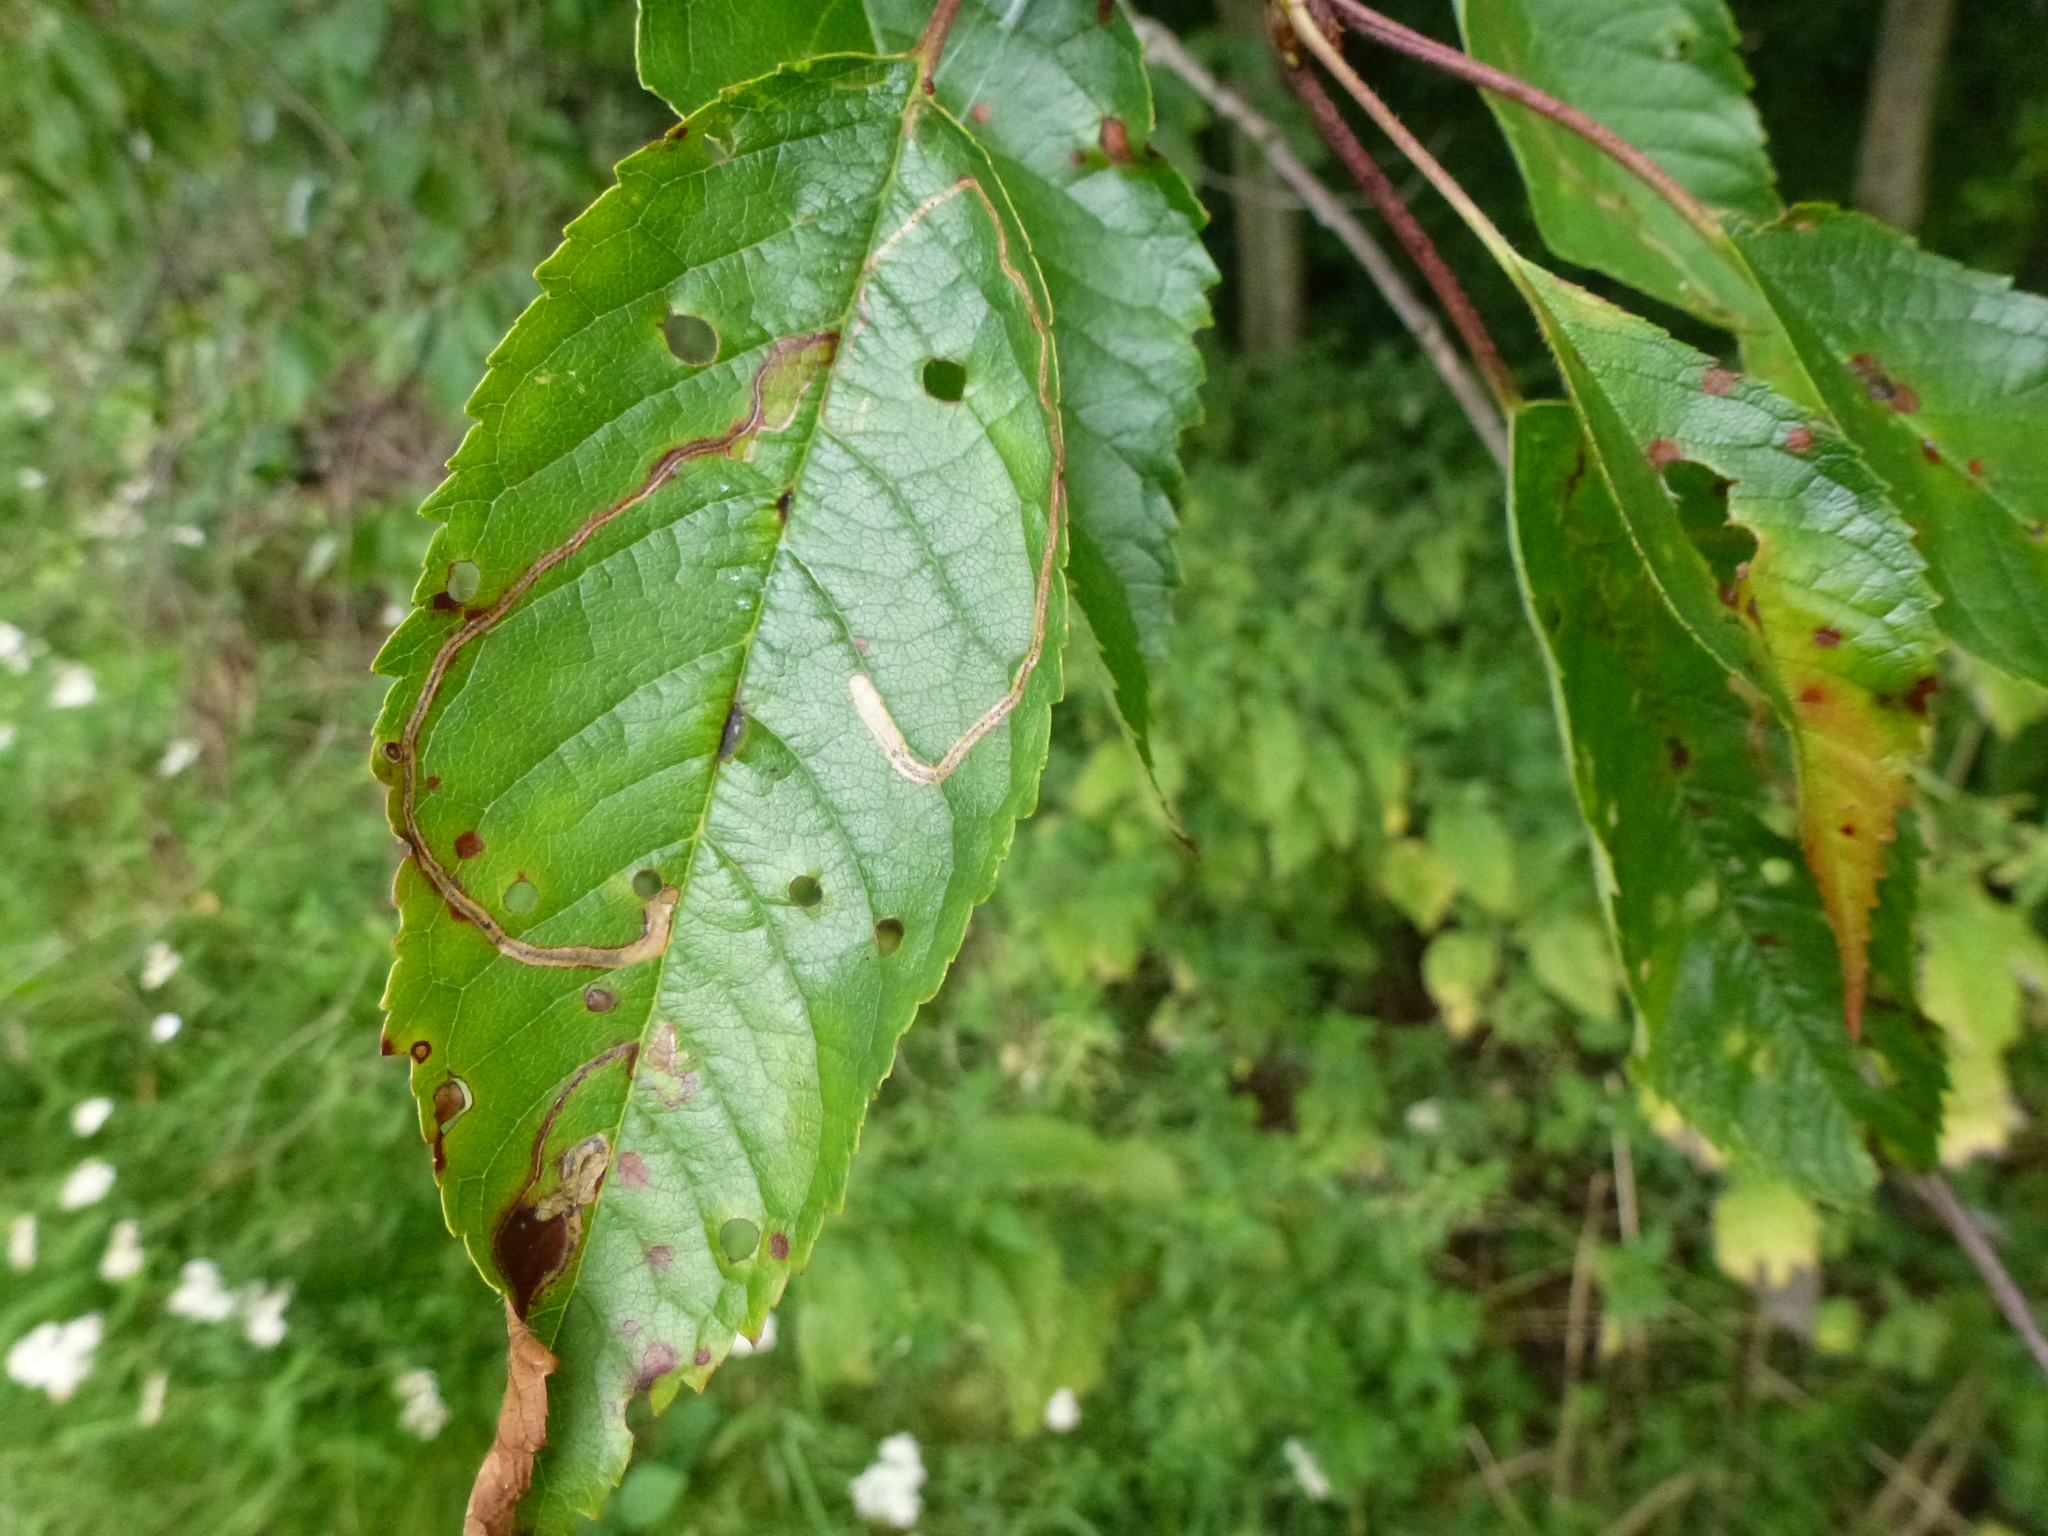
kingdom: Animalia
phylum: Arthropoda
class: Insecta
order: Lepidoptera
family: Lyonetiidae
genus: Lyonetia
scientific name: Lyonetia clerkella
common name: Apple leaf miner
